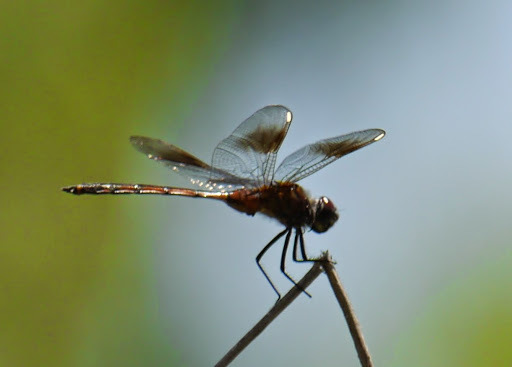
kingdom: Animalia
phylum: Arthropoda
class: Insecta
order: Odonata
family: Libellulidae
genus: Brachymesia
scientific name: Brachymesia gravida
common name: Four-spotted pennant
